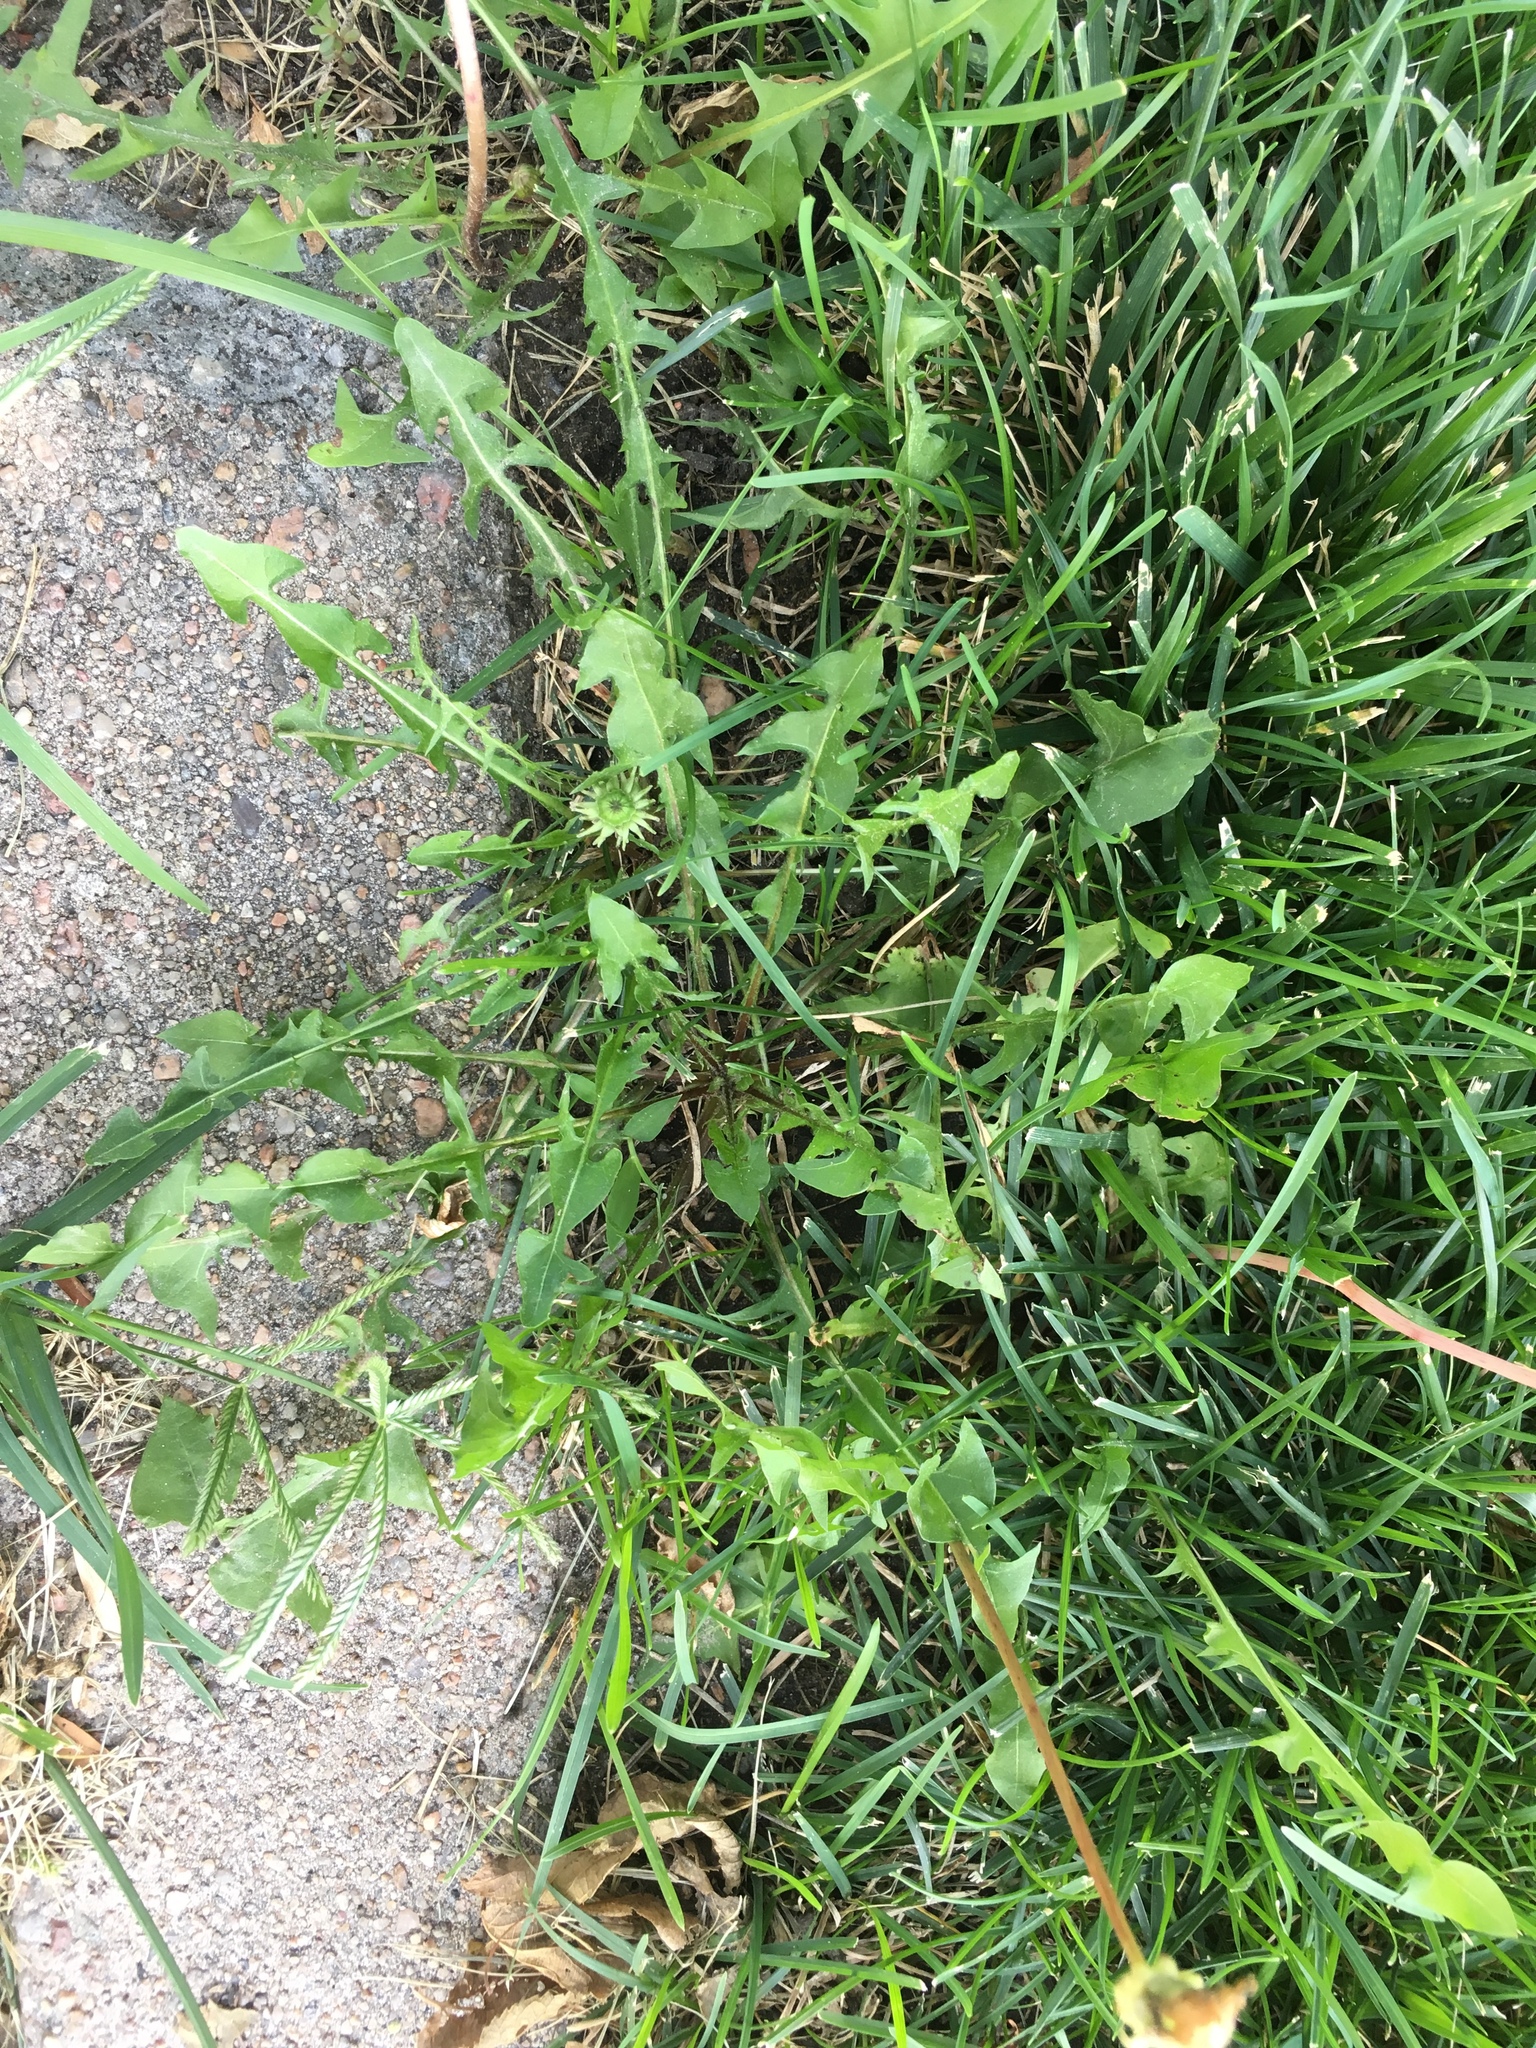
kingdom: Plantae
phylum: Tracheophyta
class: Magnoliopsida
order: Asterales
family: Asteraceae
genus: Taraxacum
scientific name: Taraxacum
